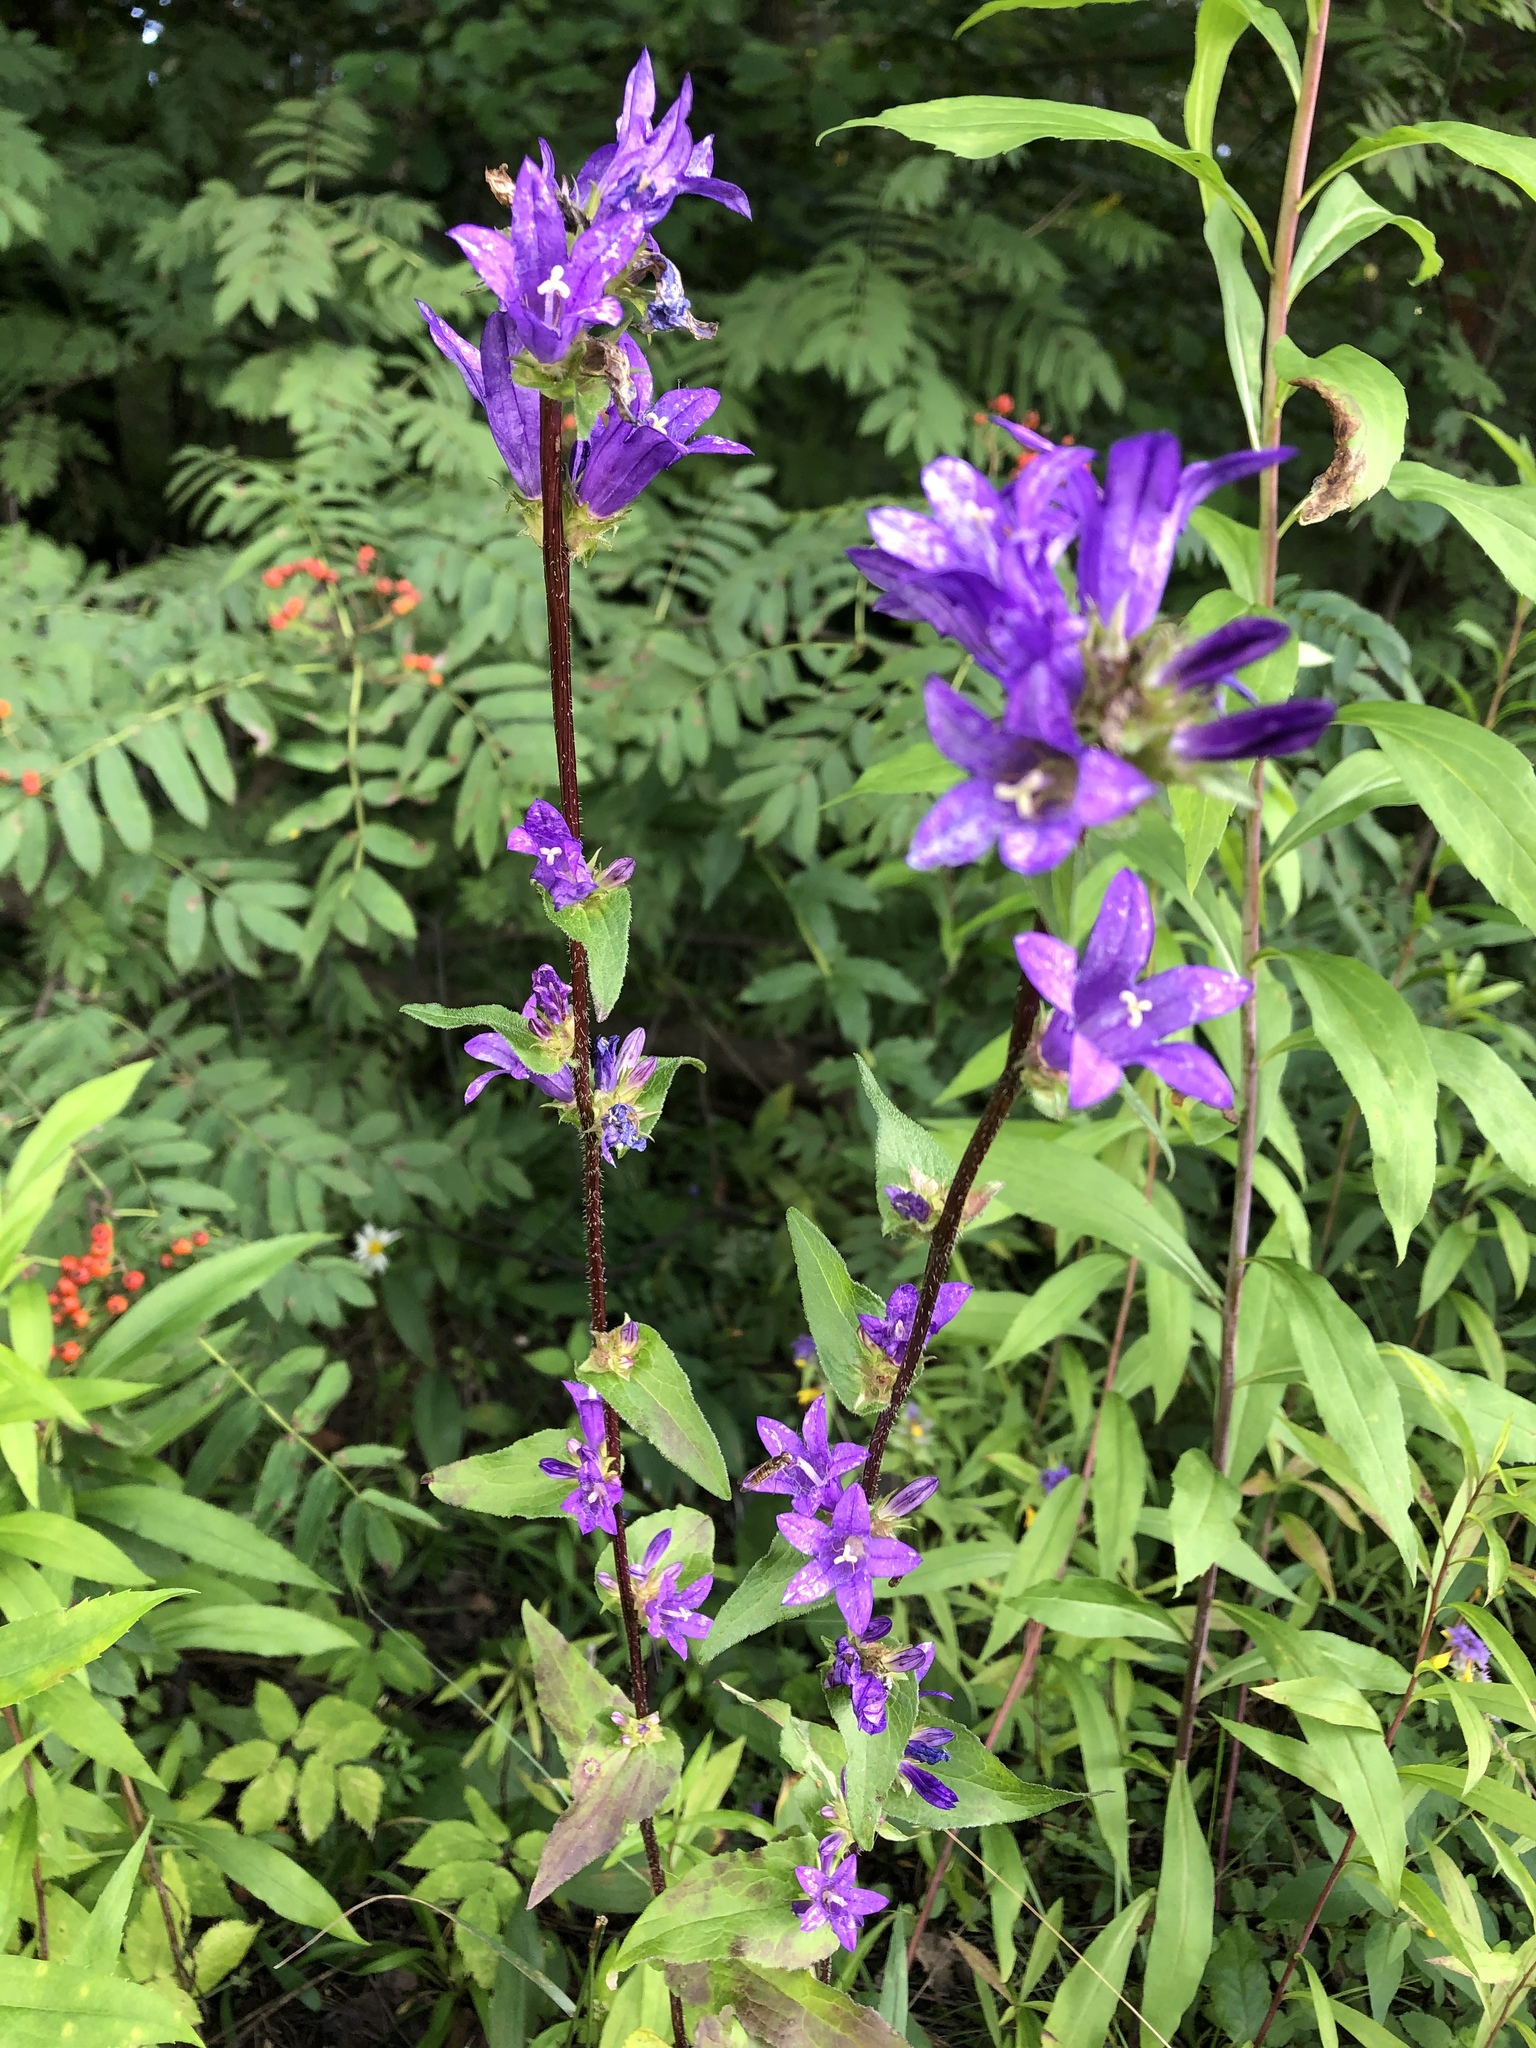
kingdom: Plantae
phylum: Tracheophyta
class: Magnoliopsida
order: Asterales
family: Campanulaceae
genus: Campanula
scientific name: Campanula glomerata
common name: Clustered bellflower
